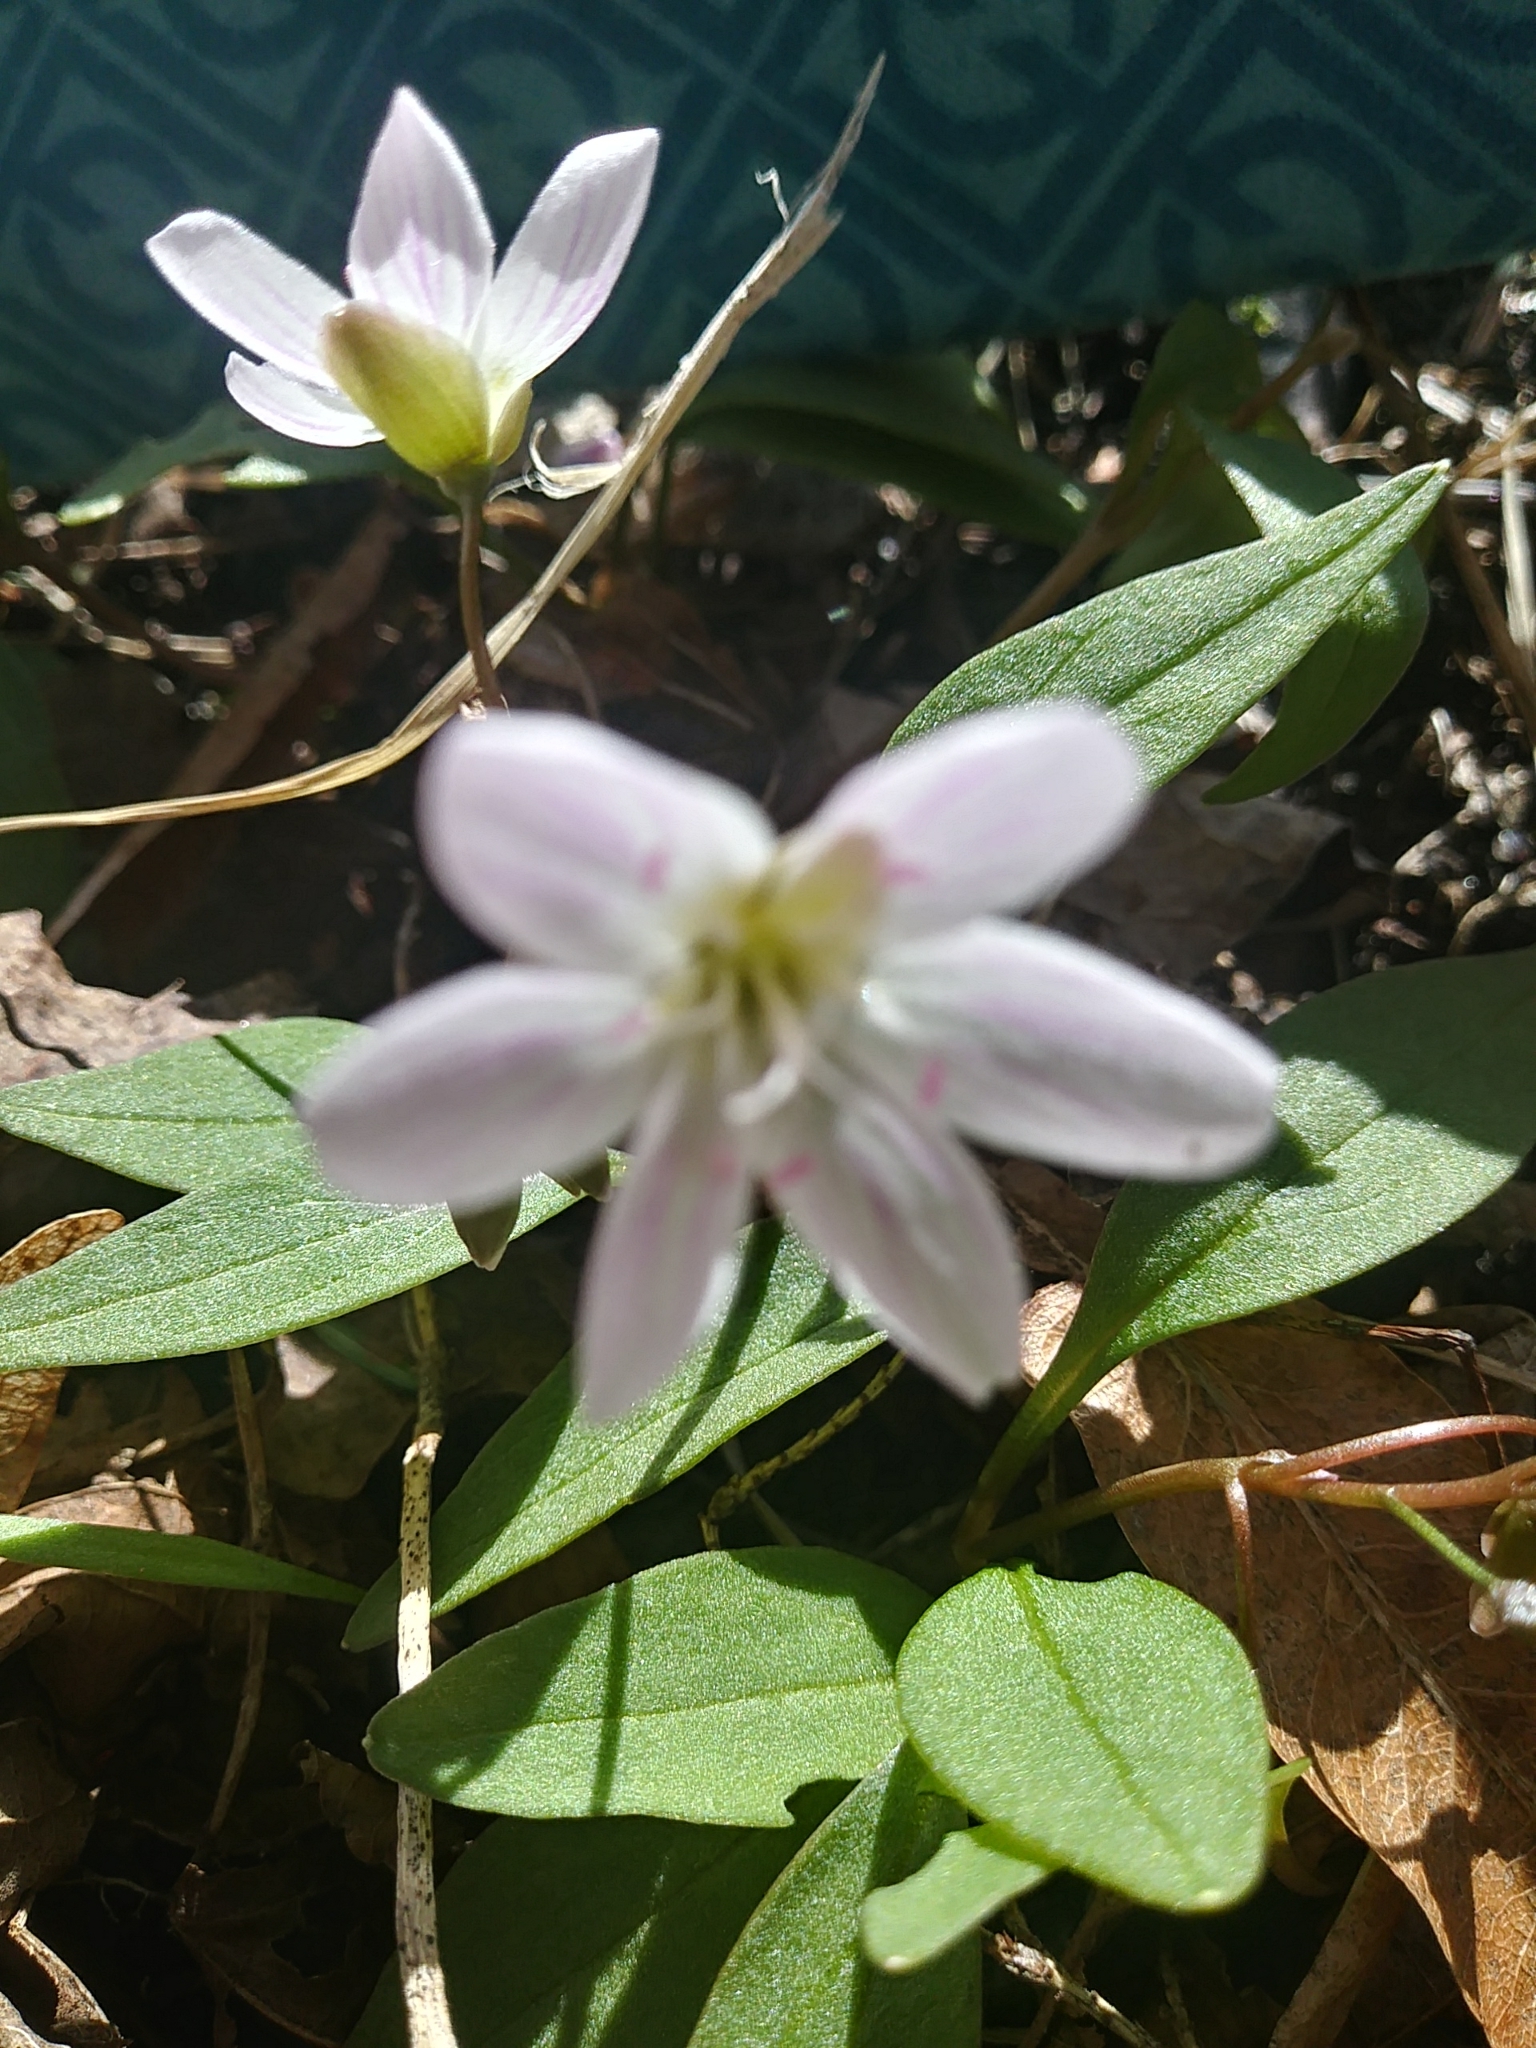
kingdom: Plantae
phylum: Tracheophyta
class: Magnoliopsida
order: Caryophyllales
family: Montiaceae
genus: Claytonia
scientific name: Claytonia caroliniana
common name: Carolina spring beauty
